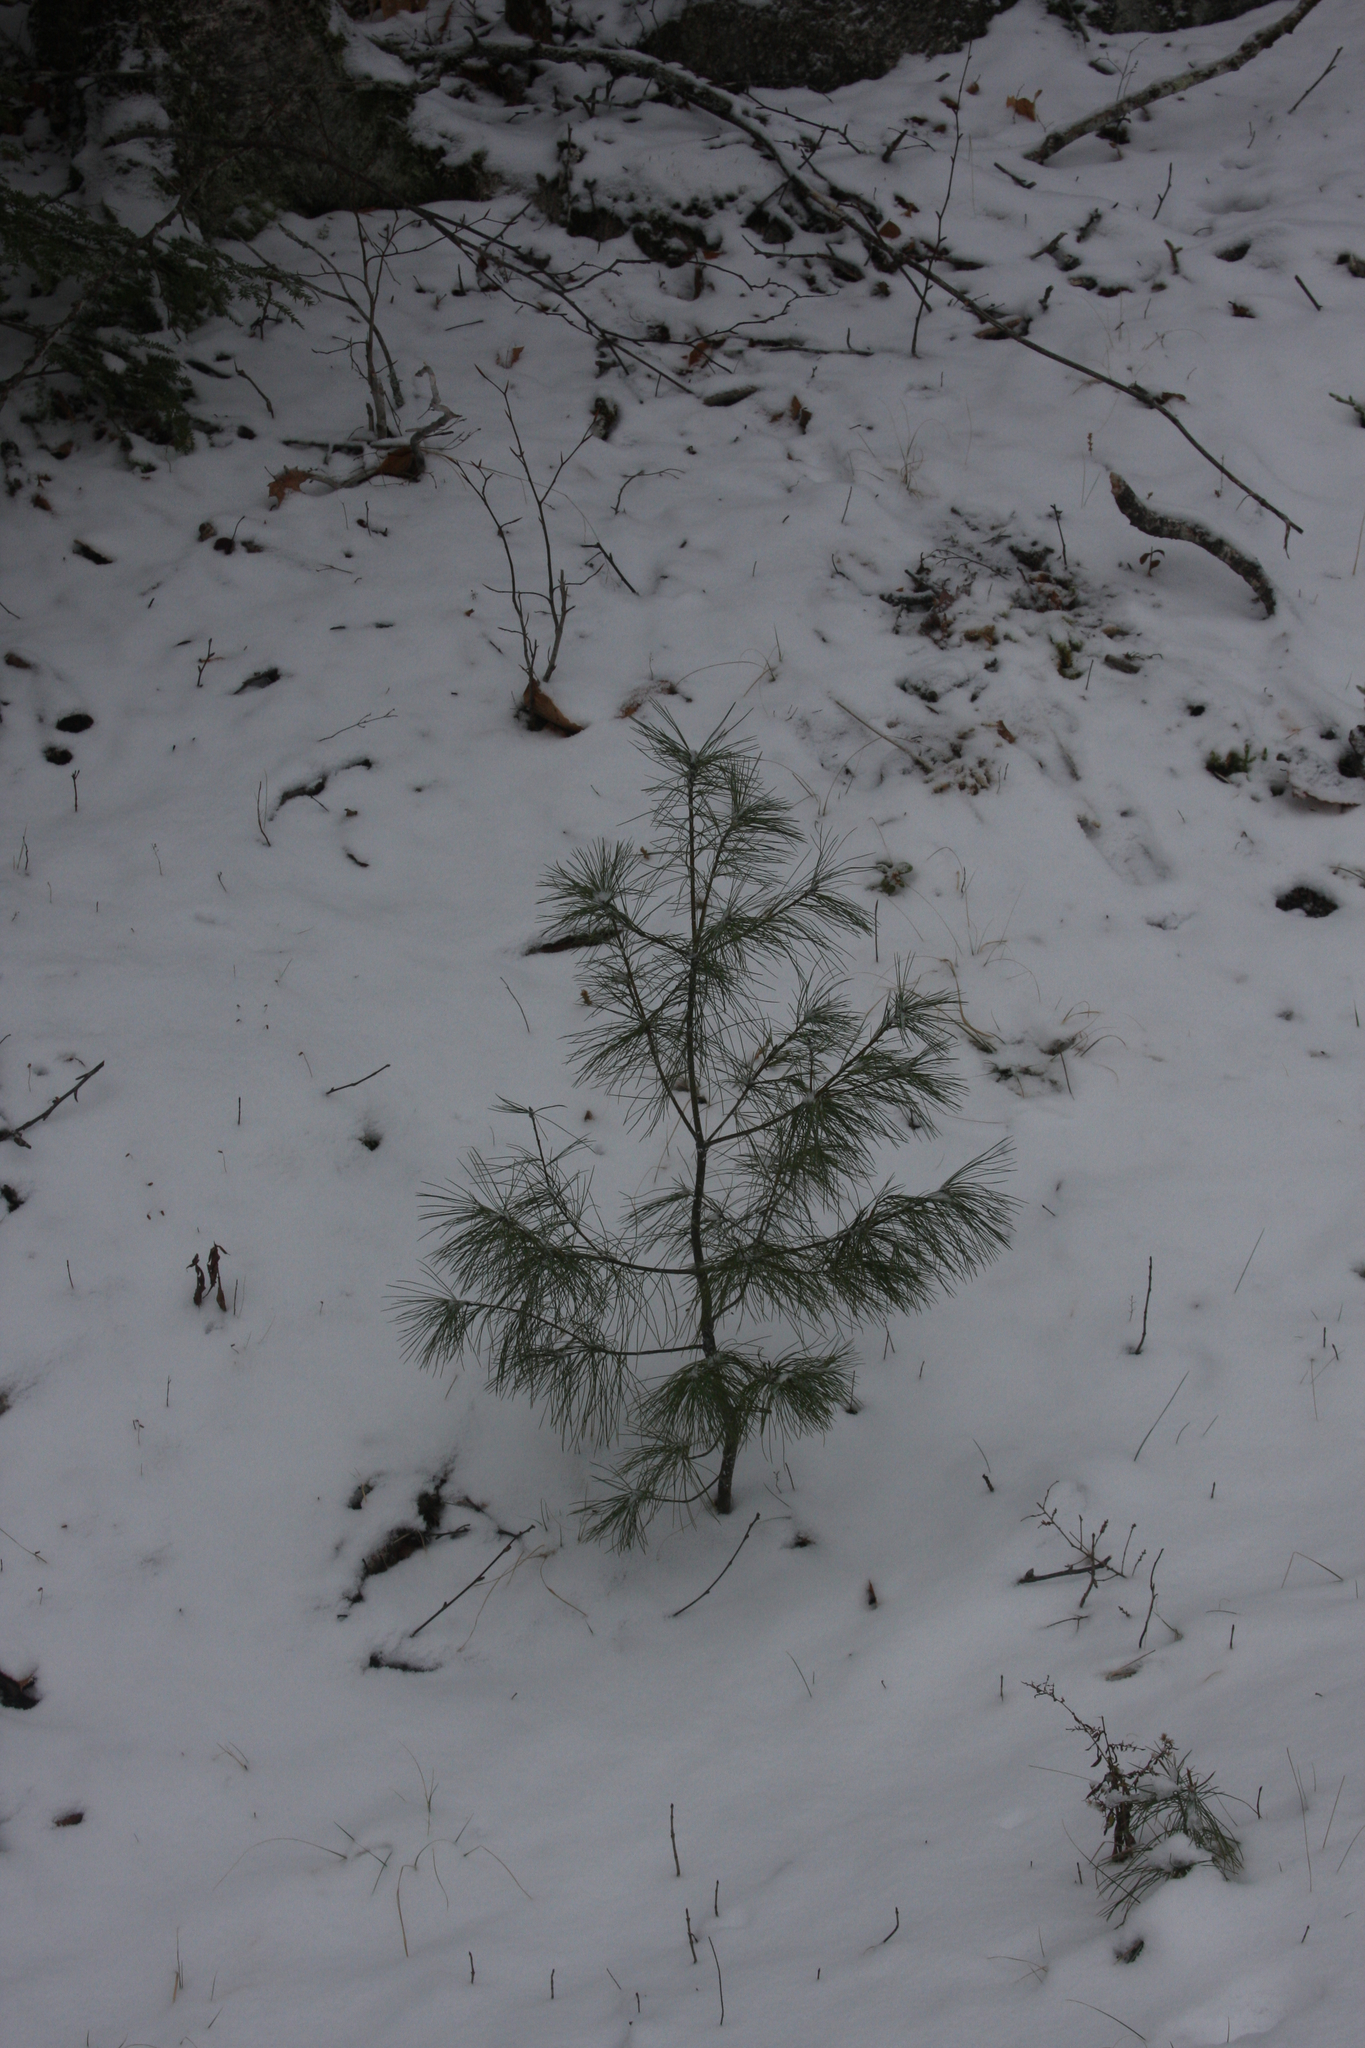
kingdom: Plantae
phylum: Tracheophyta
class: Pinopsida
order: Pinales
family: Pinaceae
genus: Pinus
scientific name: Pinus strobus
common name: Weymouth pine
